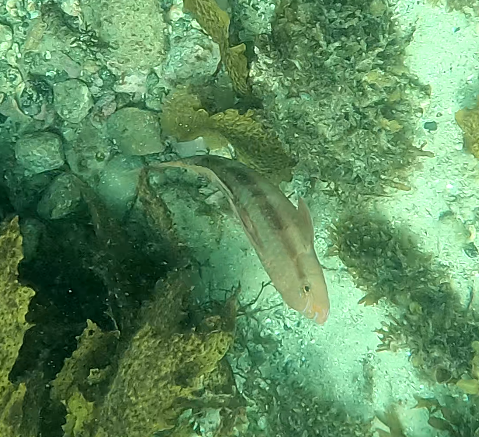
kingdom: Animalia
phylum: Chordata
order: Perciformes
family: Mullidae
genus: Upeneichthys
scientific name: Upeneichthys lineatus
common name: Red mullet
